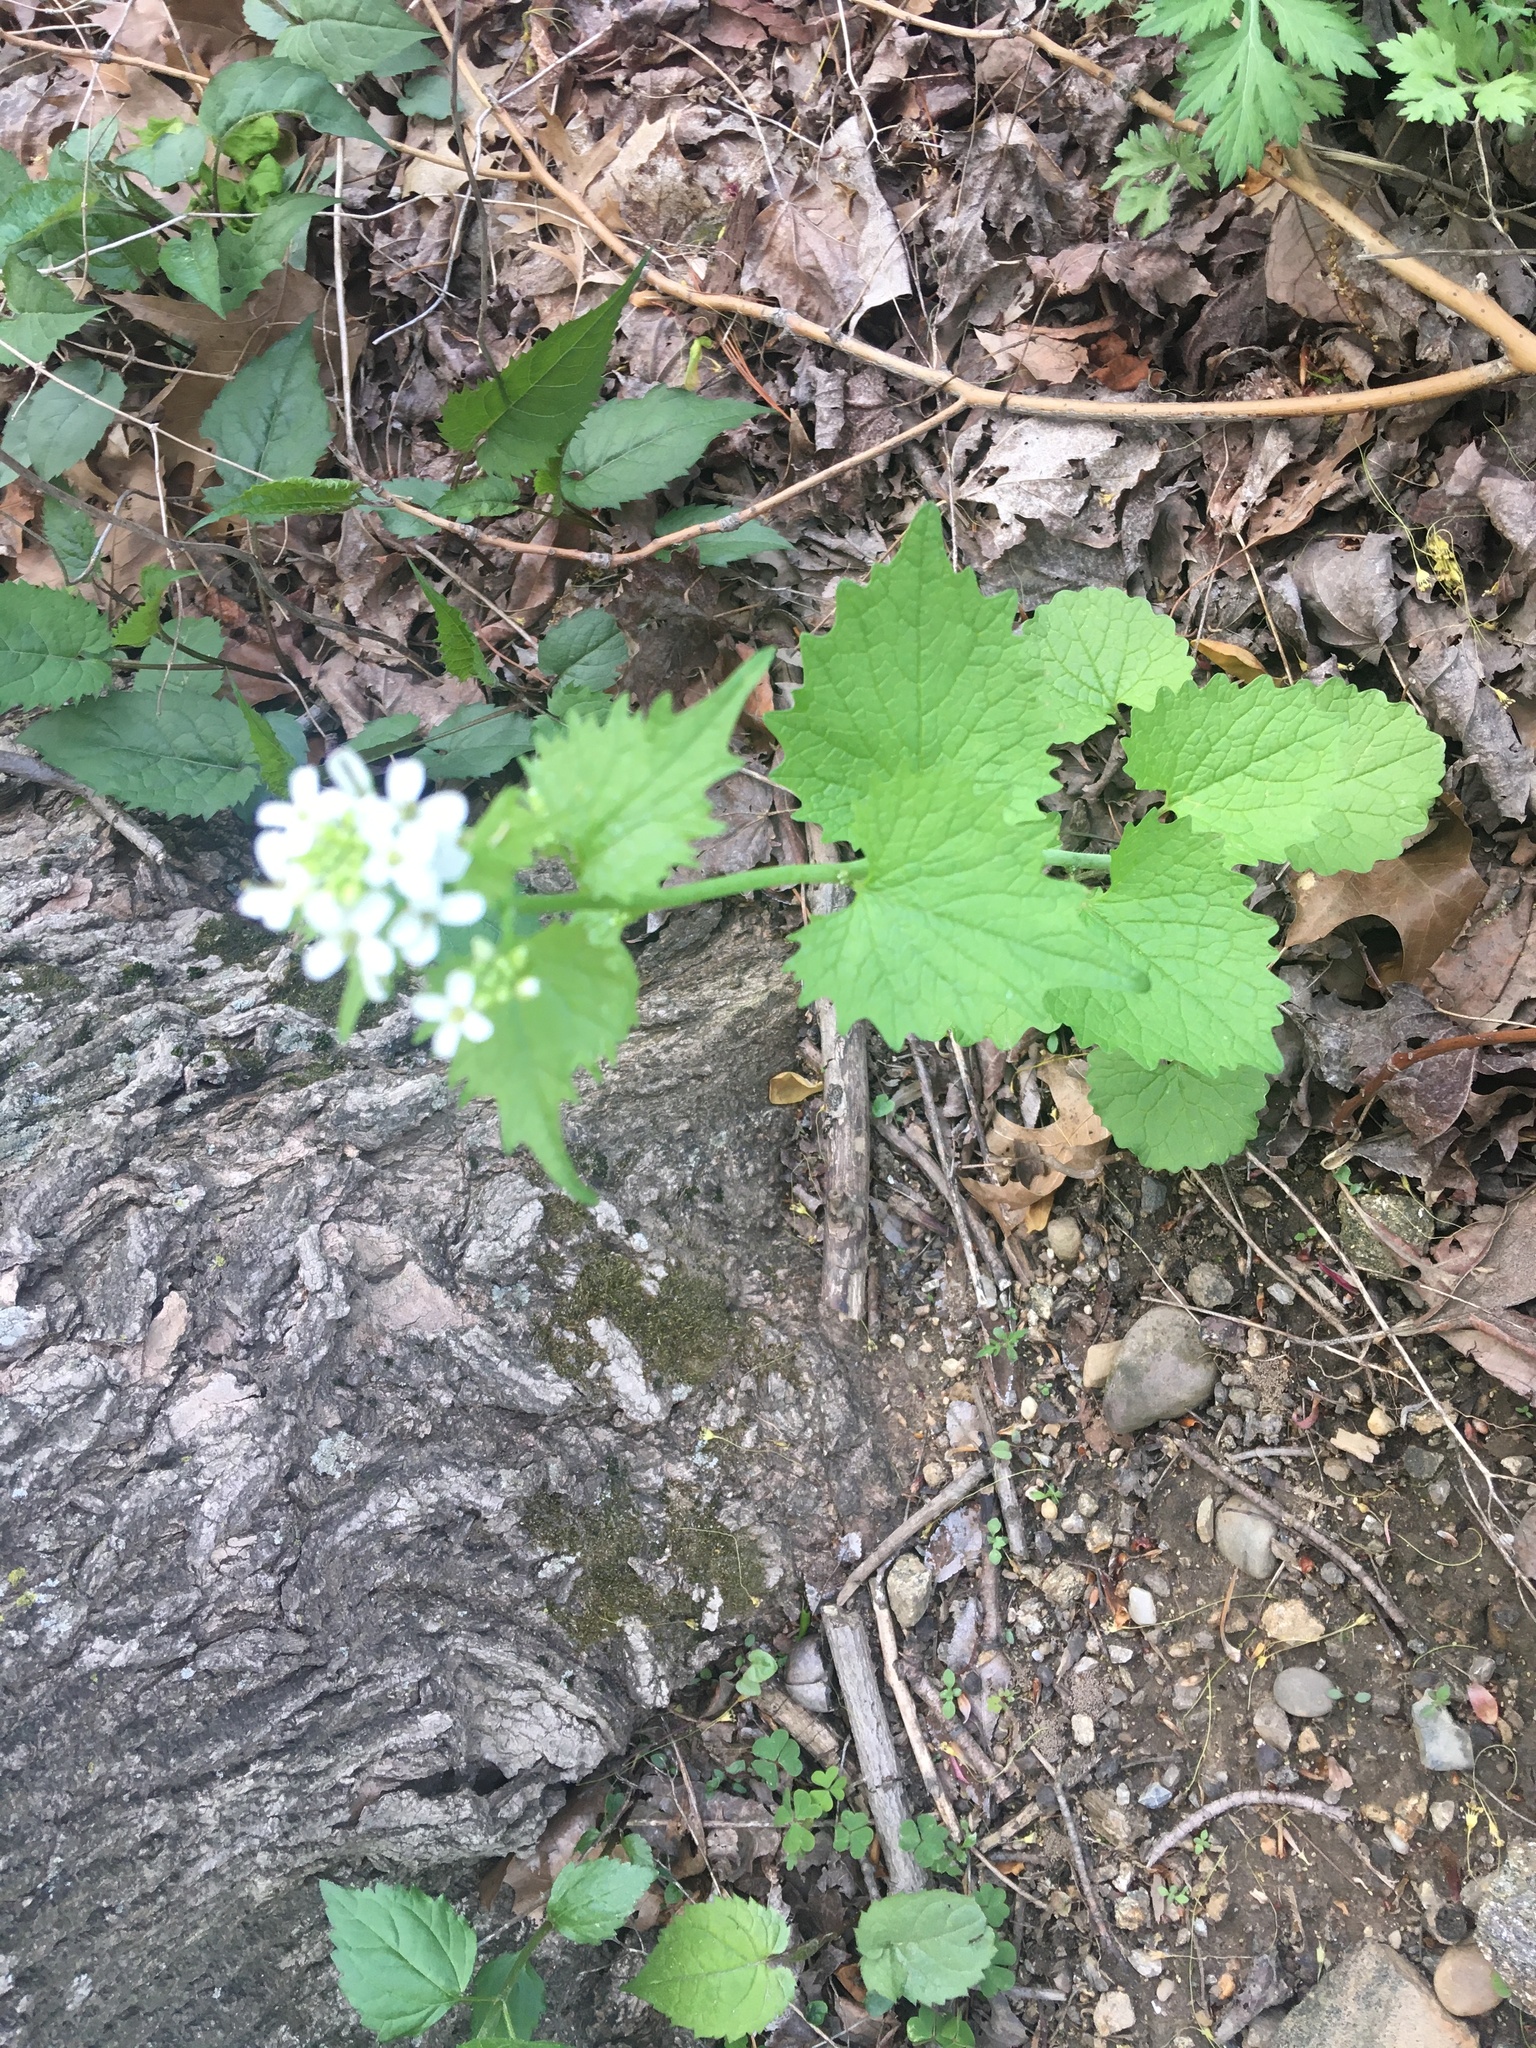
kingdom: Plantae
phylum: Tracheophyta
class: Magnoliopsida
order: Brassicales
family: Brassicaceae
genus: Alliaria
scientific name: Alliaria petiolata
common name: Garlic mustard
